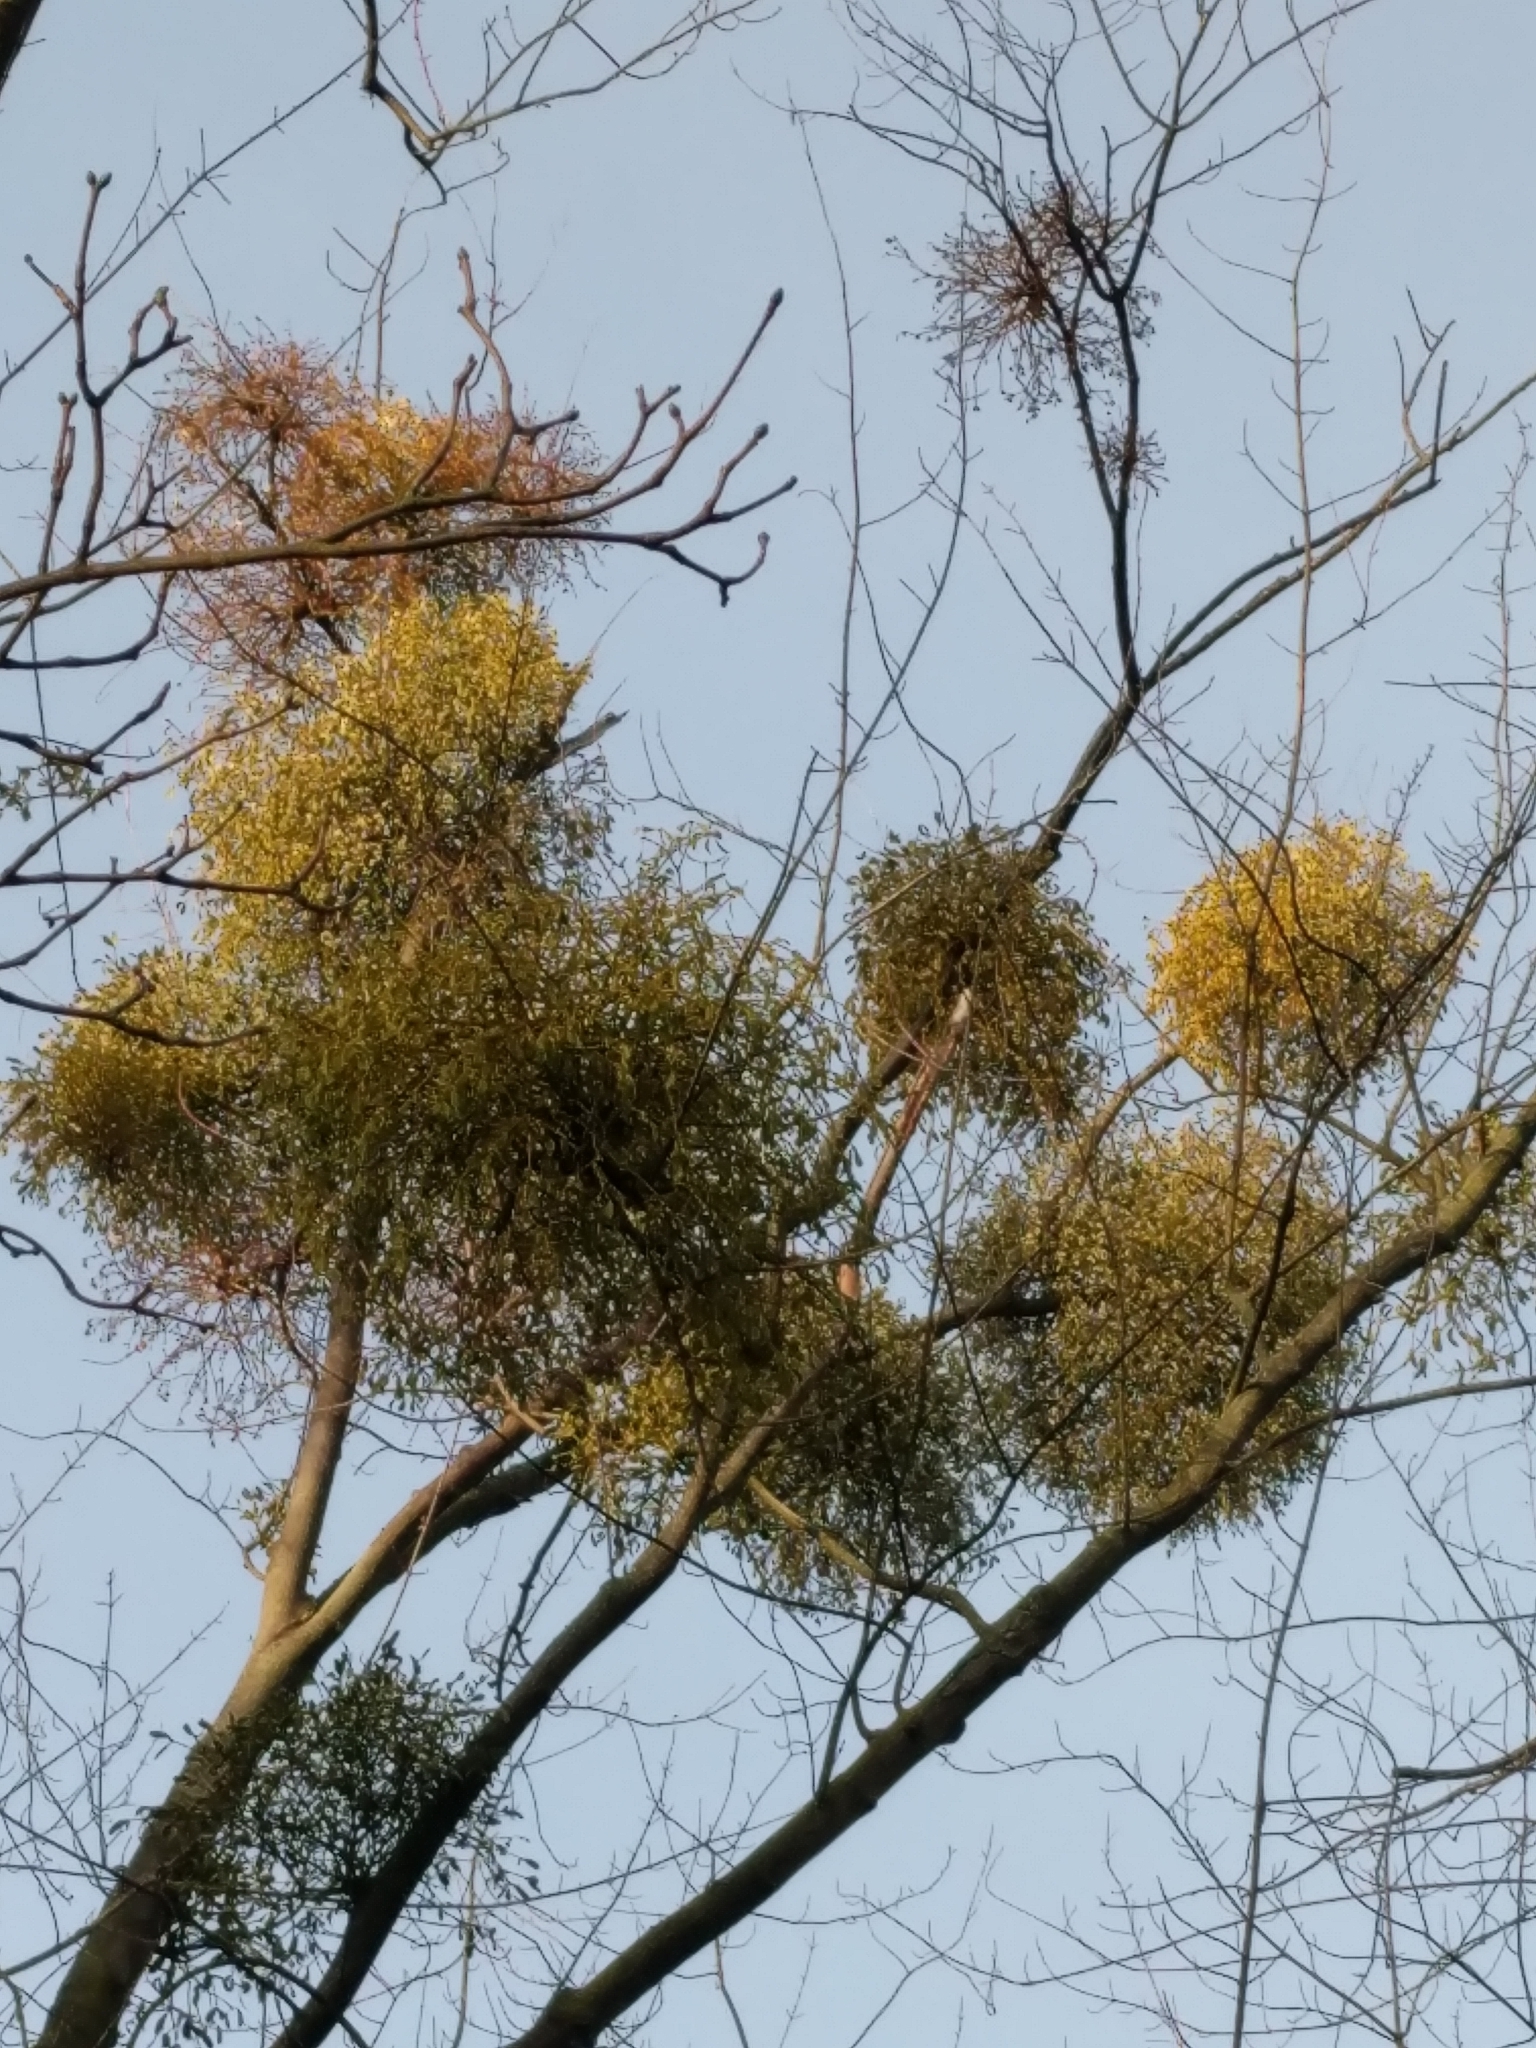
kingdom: Plantae
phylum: Tracheophyta
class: Magnoliopsida
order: Santalales
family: Viscaceae
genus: Viscum
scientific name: Viscum album
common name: Mistletoe
